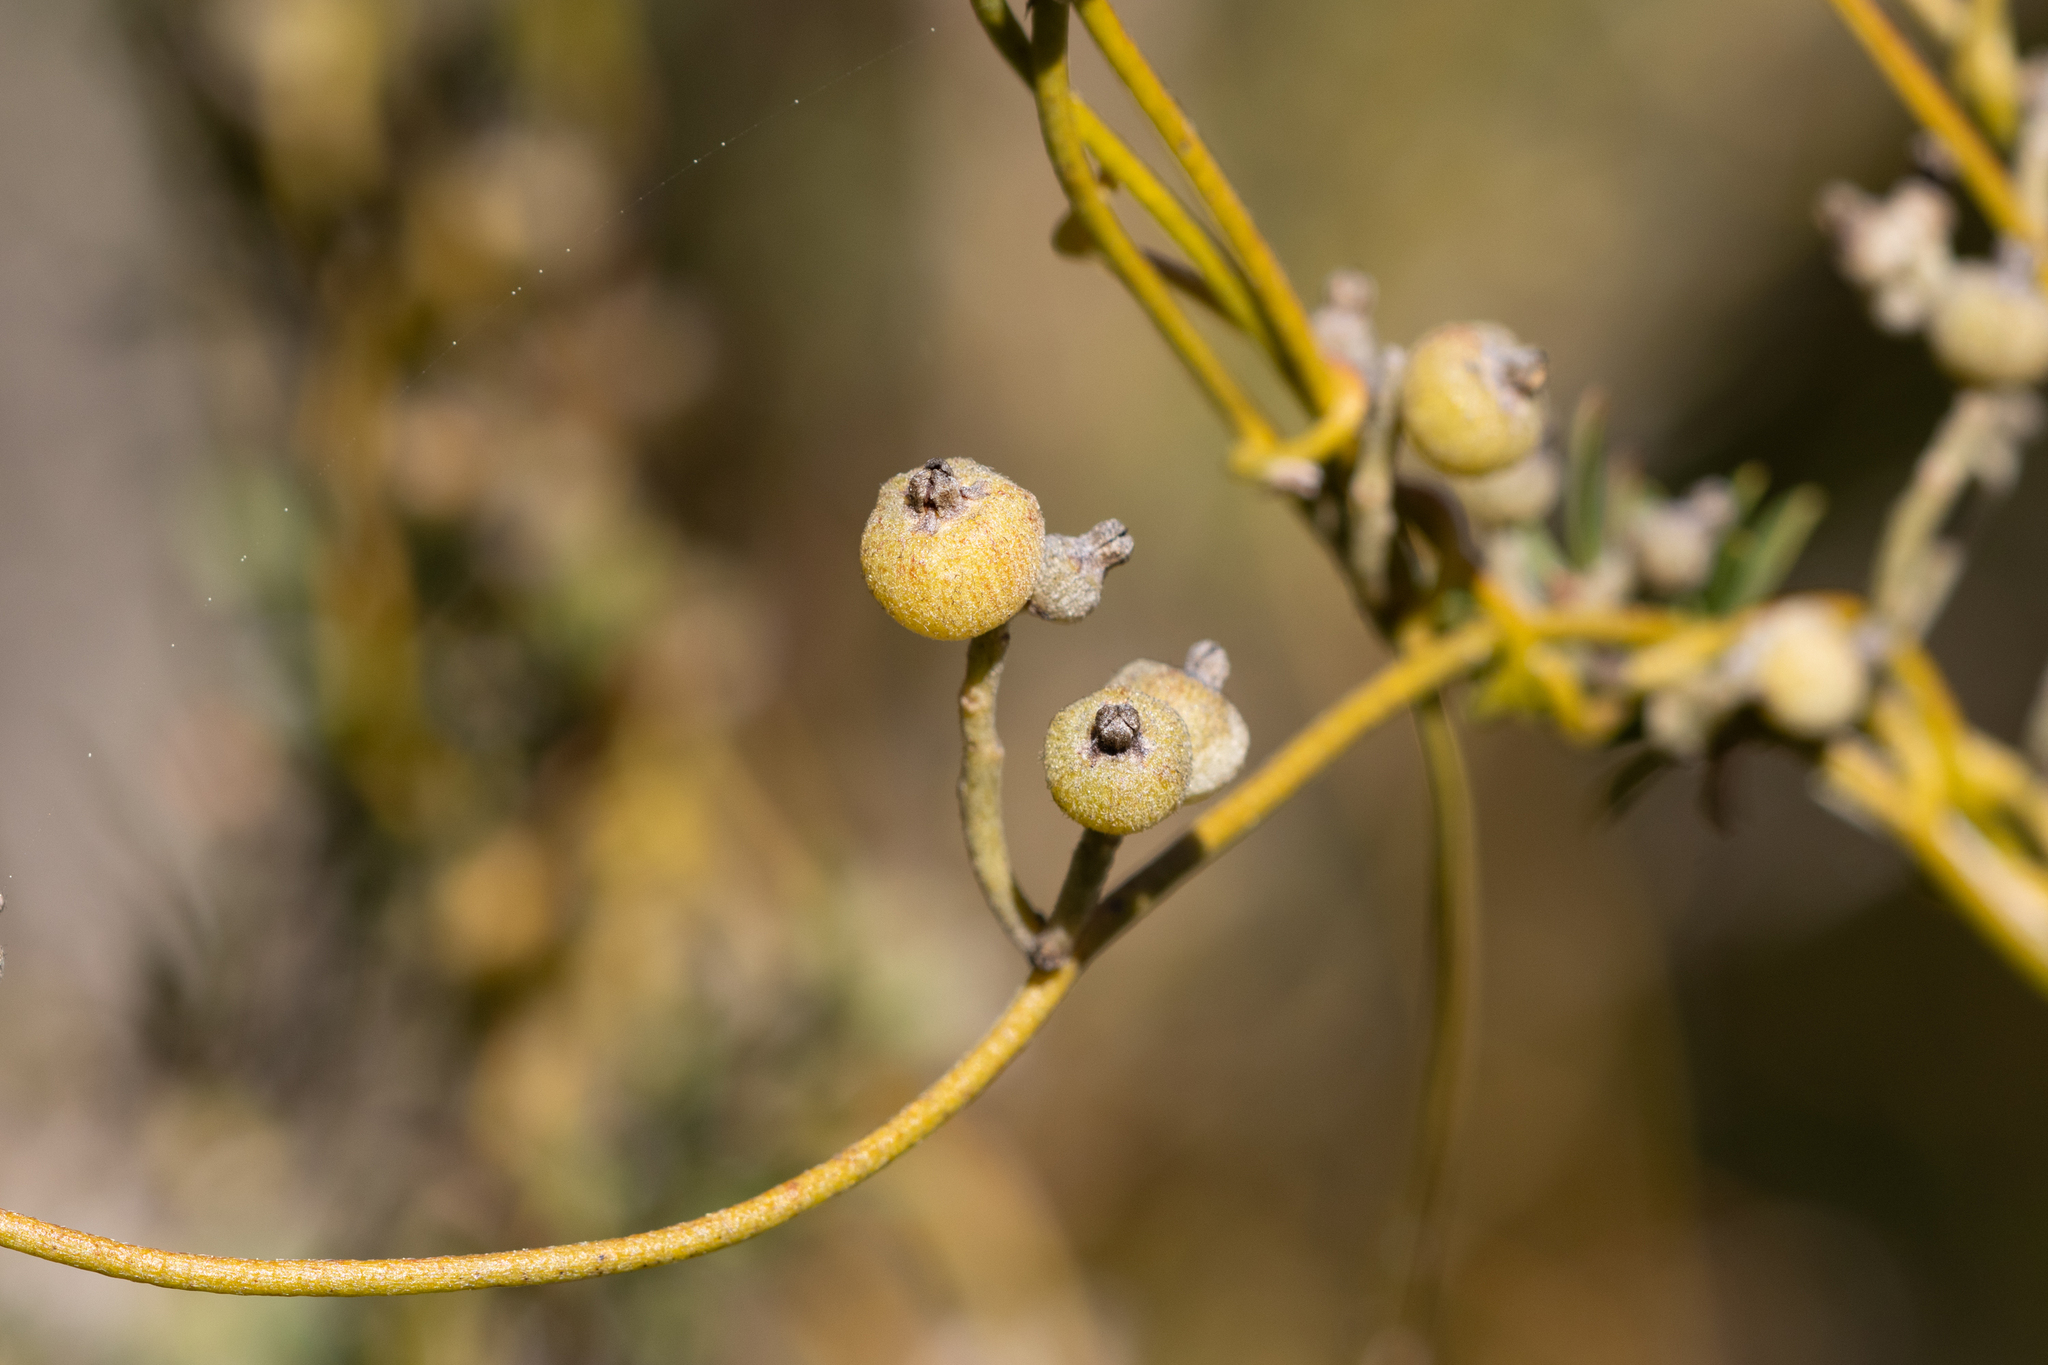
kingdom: Plantae
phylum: Tracheophyta
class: Magnoliopsida
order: Laurales
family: Lauraceae
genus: Cassytha
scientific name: Cassytha pubescens
